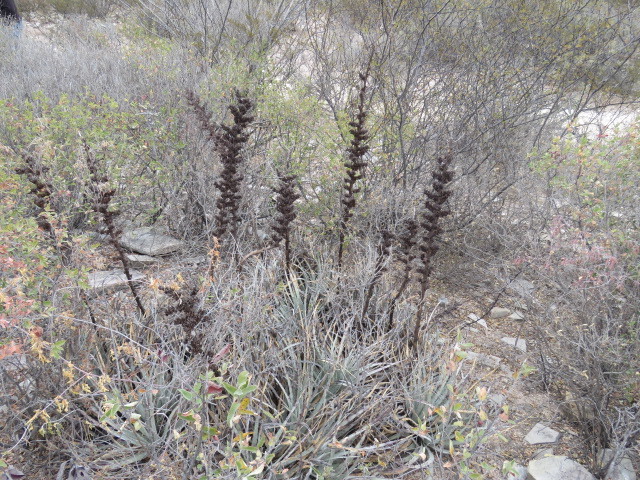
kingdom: Plantae
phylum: Tracheophyta
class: Liliopsida
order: Poales
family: Bromeliaceae
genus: Hechtia
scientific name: Hechtia podantha
